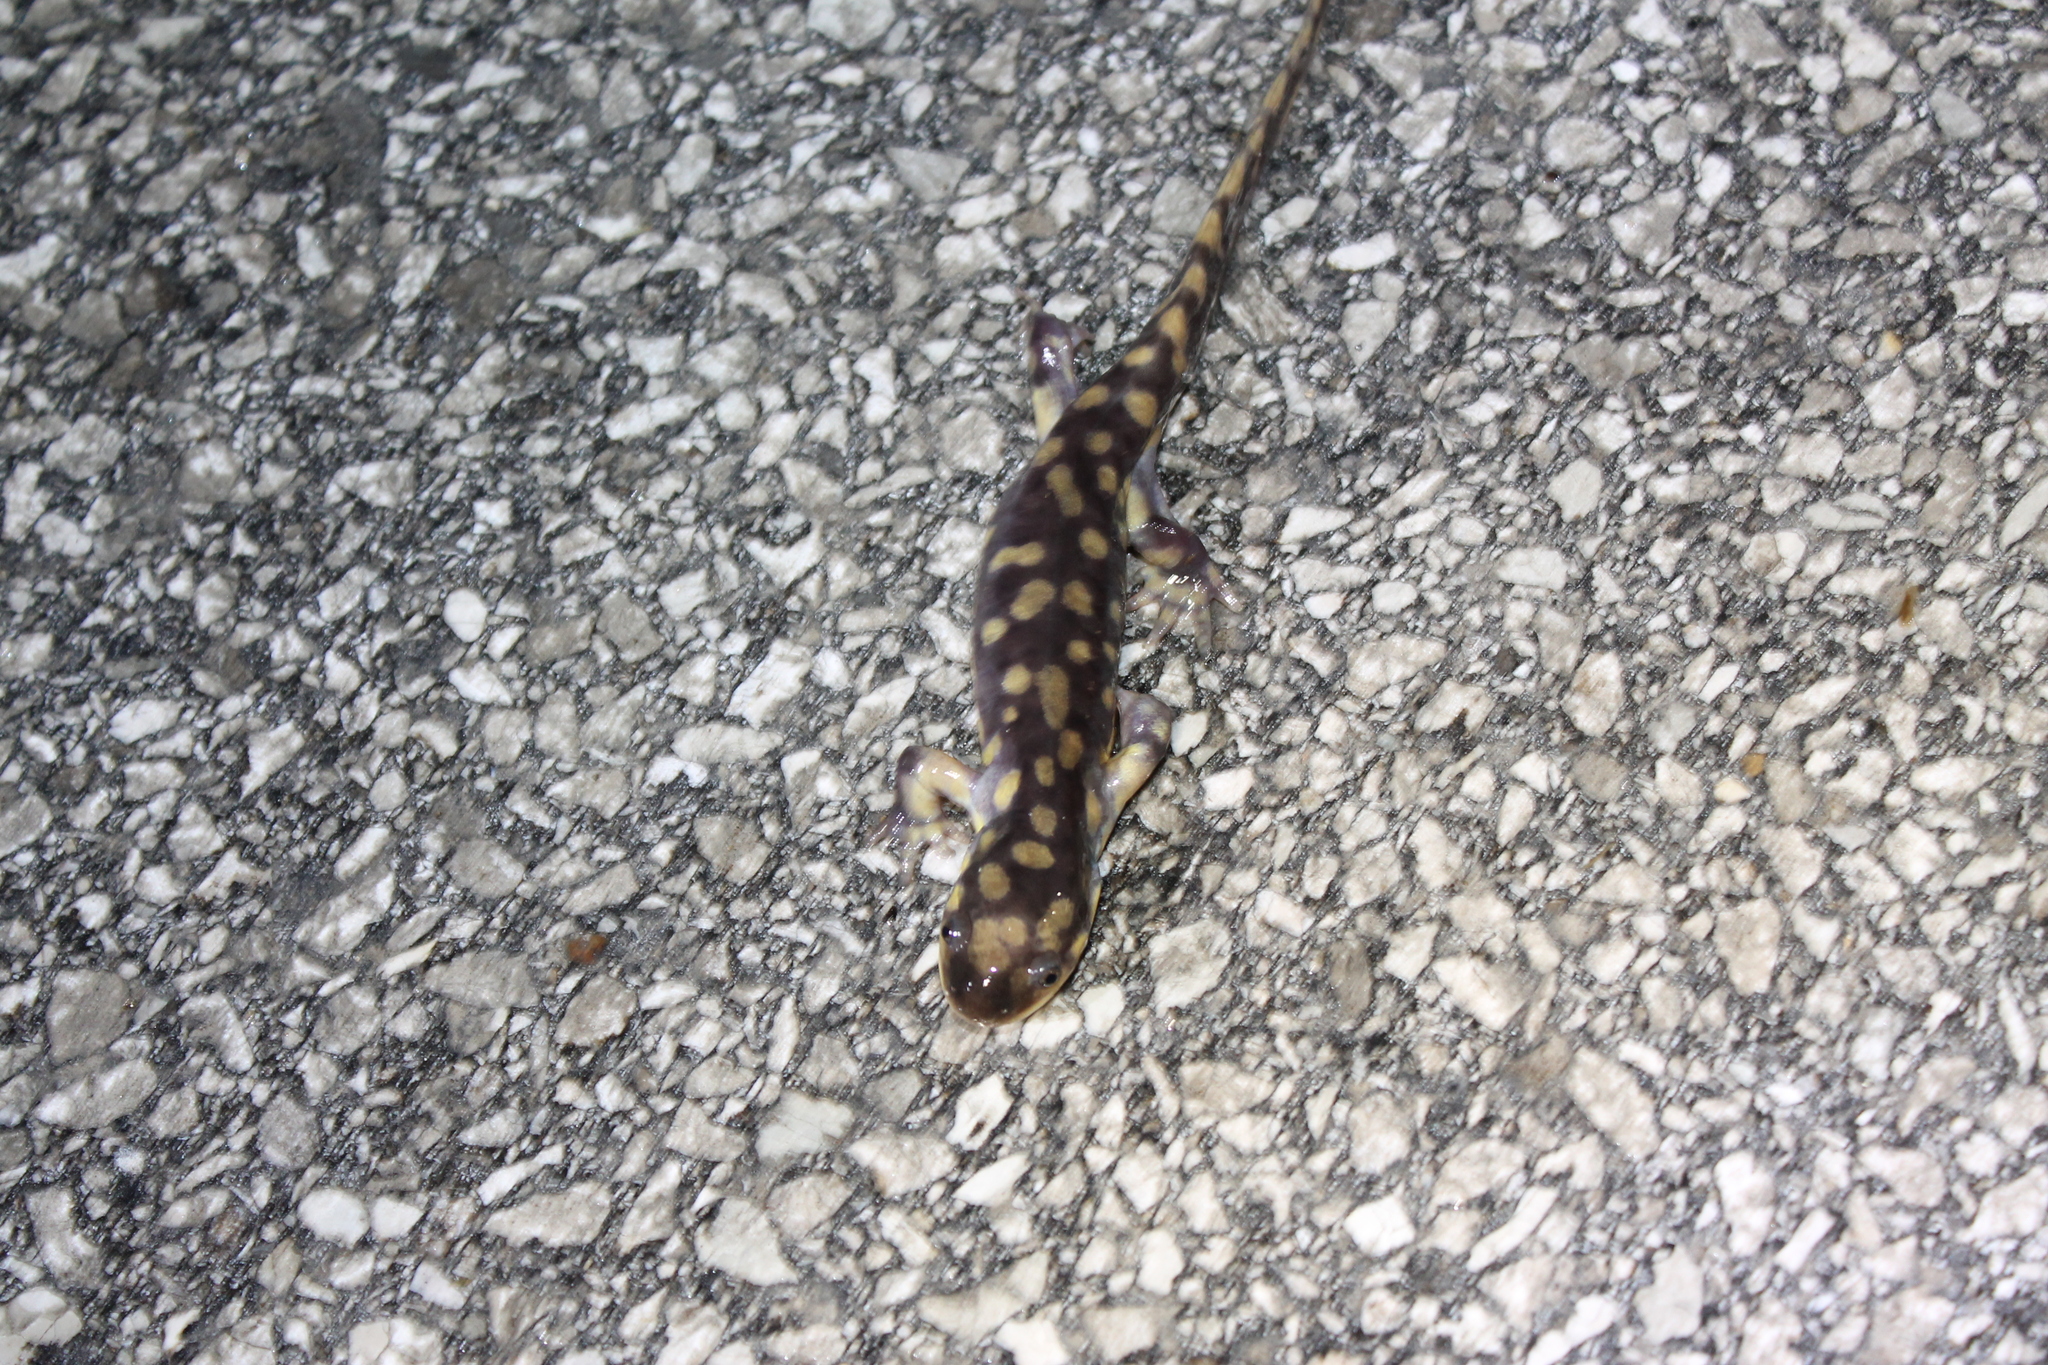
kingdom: Animalia
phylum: Chordata
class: Amphibia
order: Caudata
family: Ambystomatidae
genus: Ambystoma
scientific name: Ambystoma tigrinum
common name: Tiger salamander
